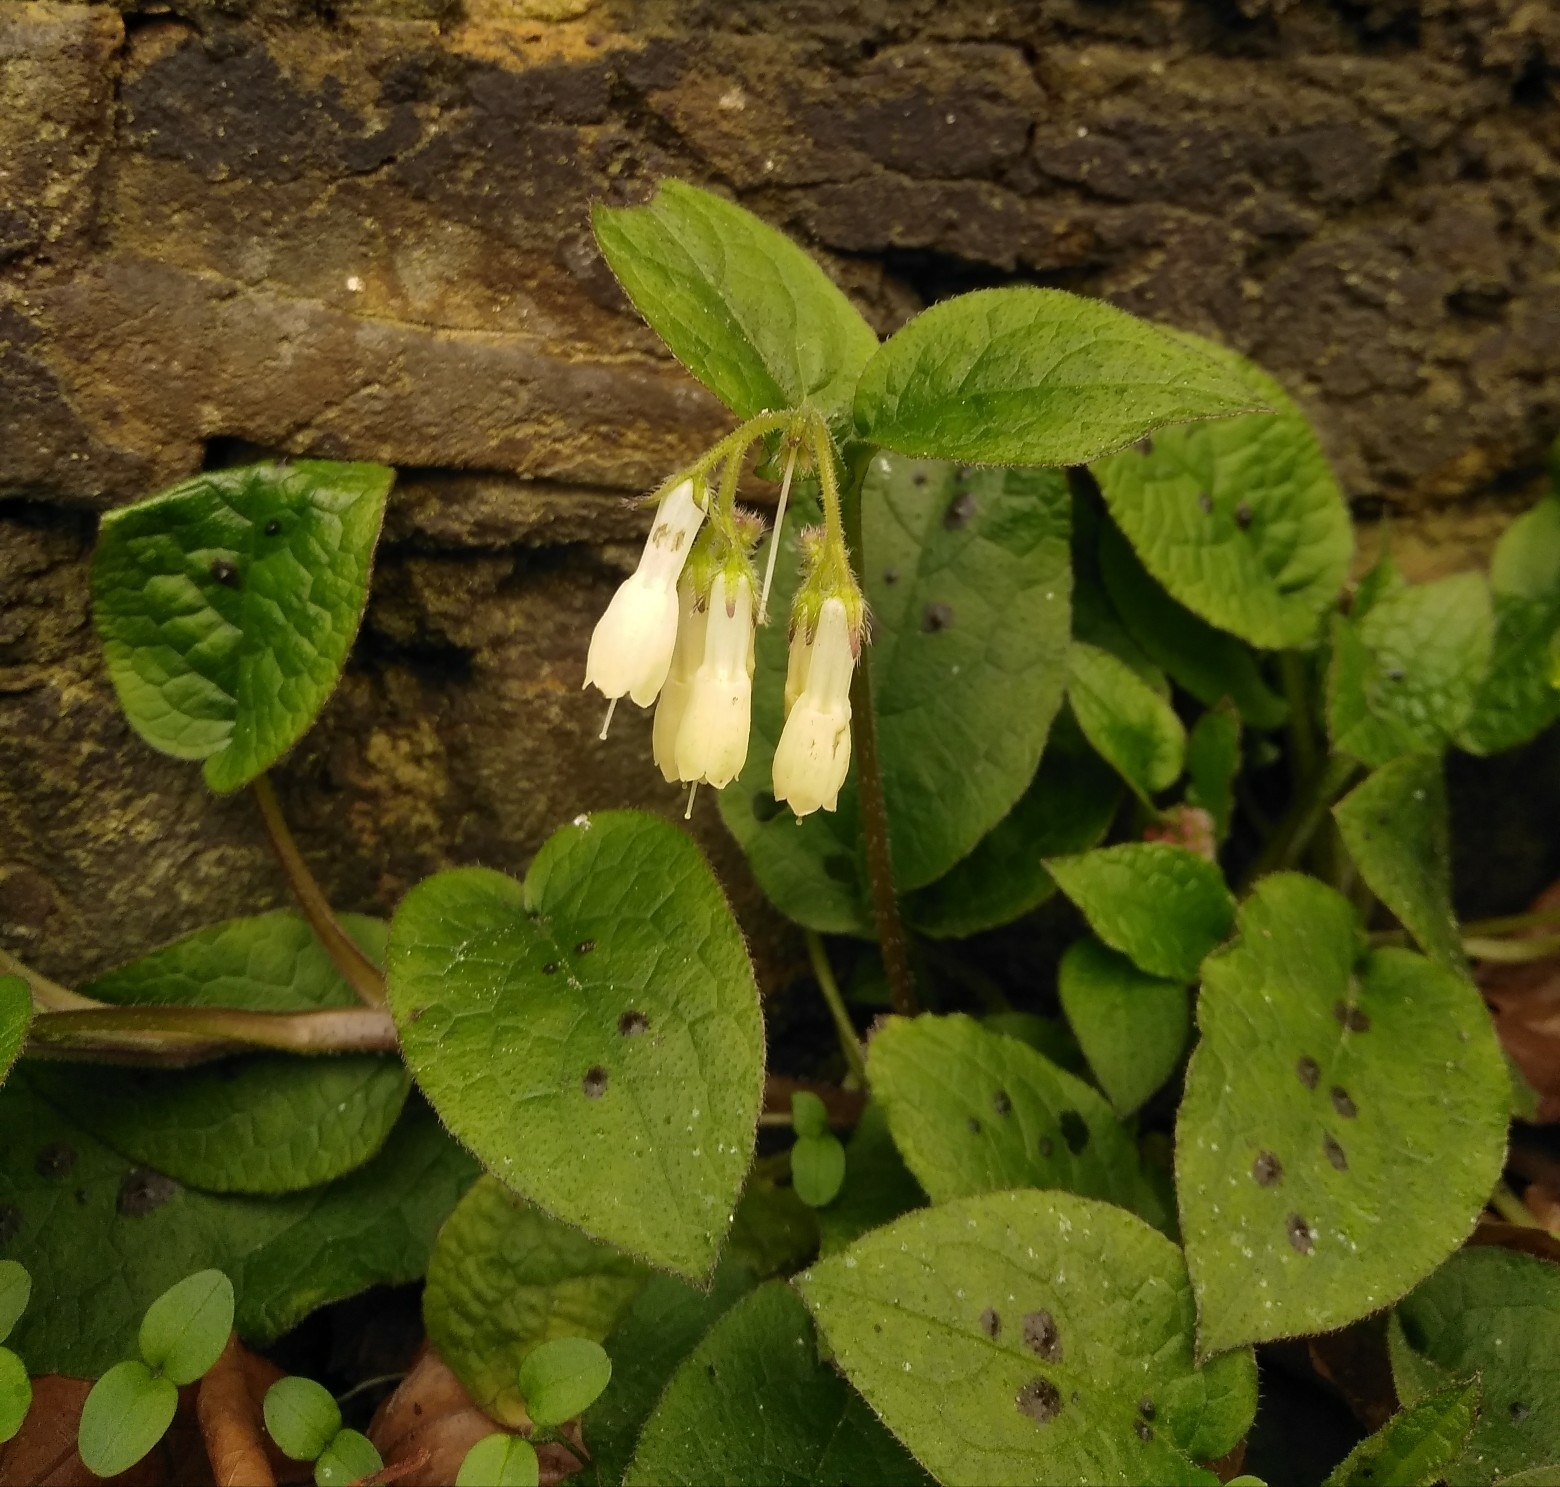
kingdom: Plantae
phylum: Tracheophyta
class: Magnoliopsida
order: Boraginales
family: Boraginaceae
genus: Symphytum
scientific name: Symphytum grandiflorum
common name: Creeping comfrey
